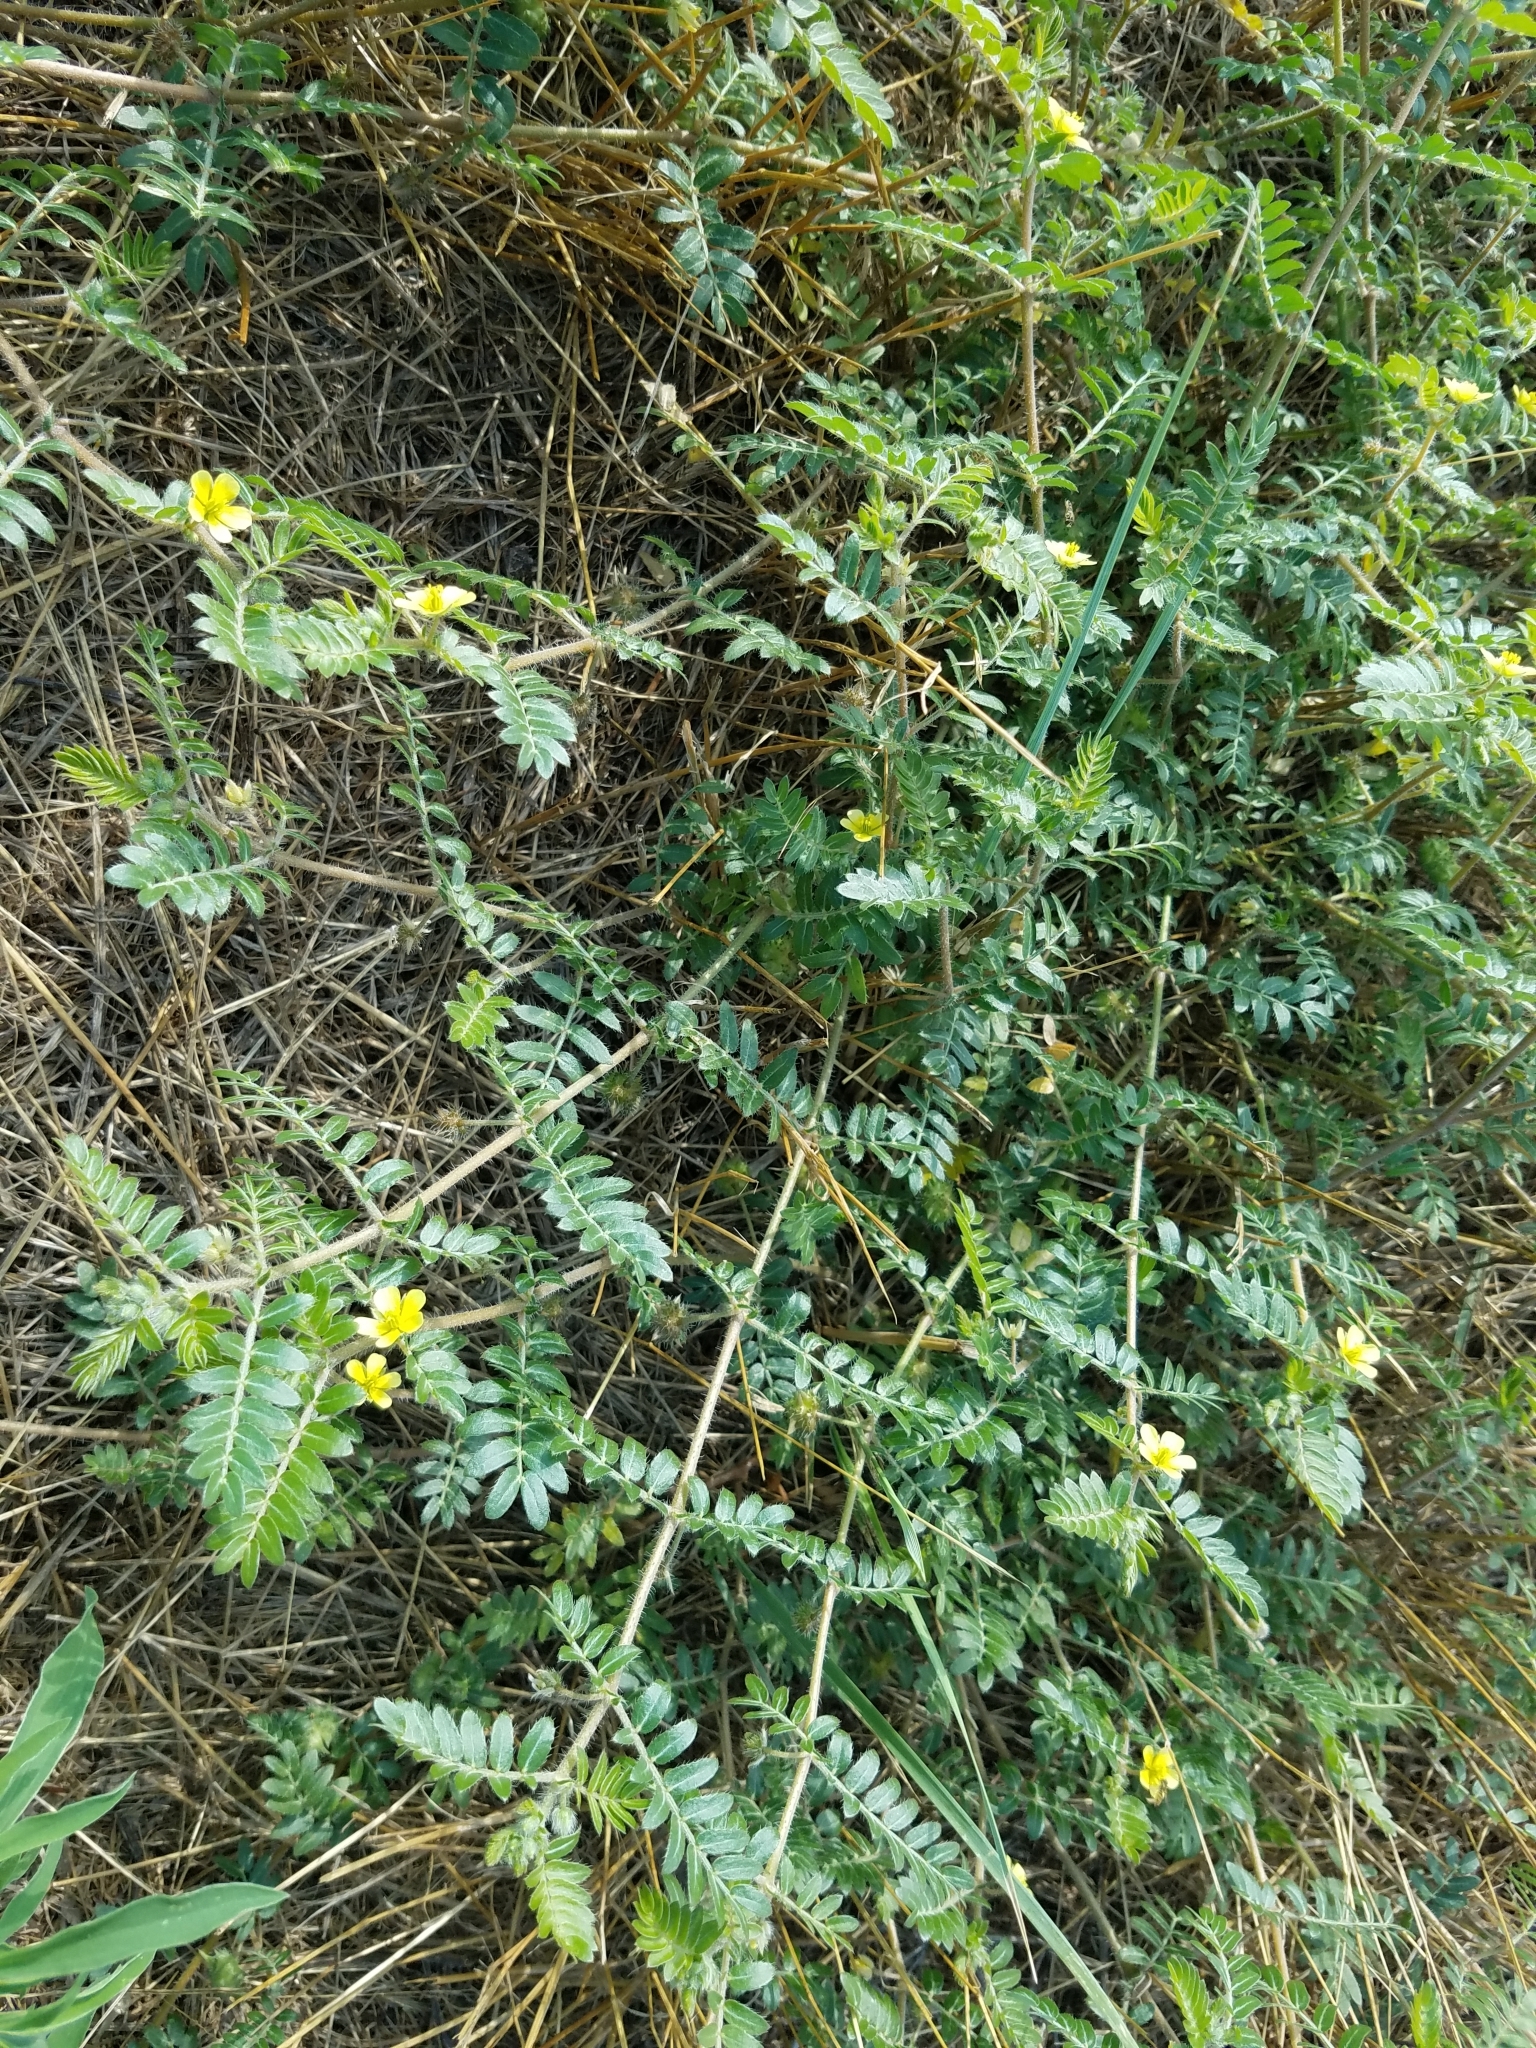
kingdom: Plantae
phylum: Tracheophyta
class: Magnoliopsida
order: Zygophyllales
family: Zygophyllaceae
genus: Tribulus
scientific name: Tribulus terrestris
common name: Puncturevine
